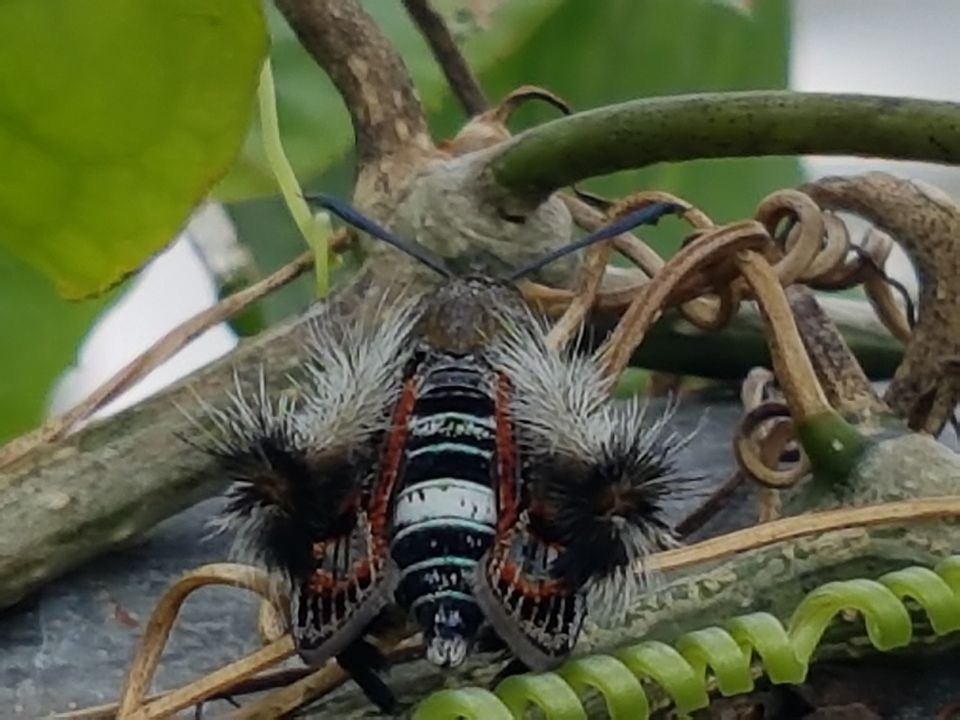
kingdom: Animalia
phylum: Arthropoda
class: Insecta
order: Lepidoptera
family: Sesiidae
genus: Melittia
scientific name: Melittia oedipus
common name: Moth
